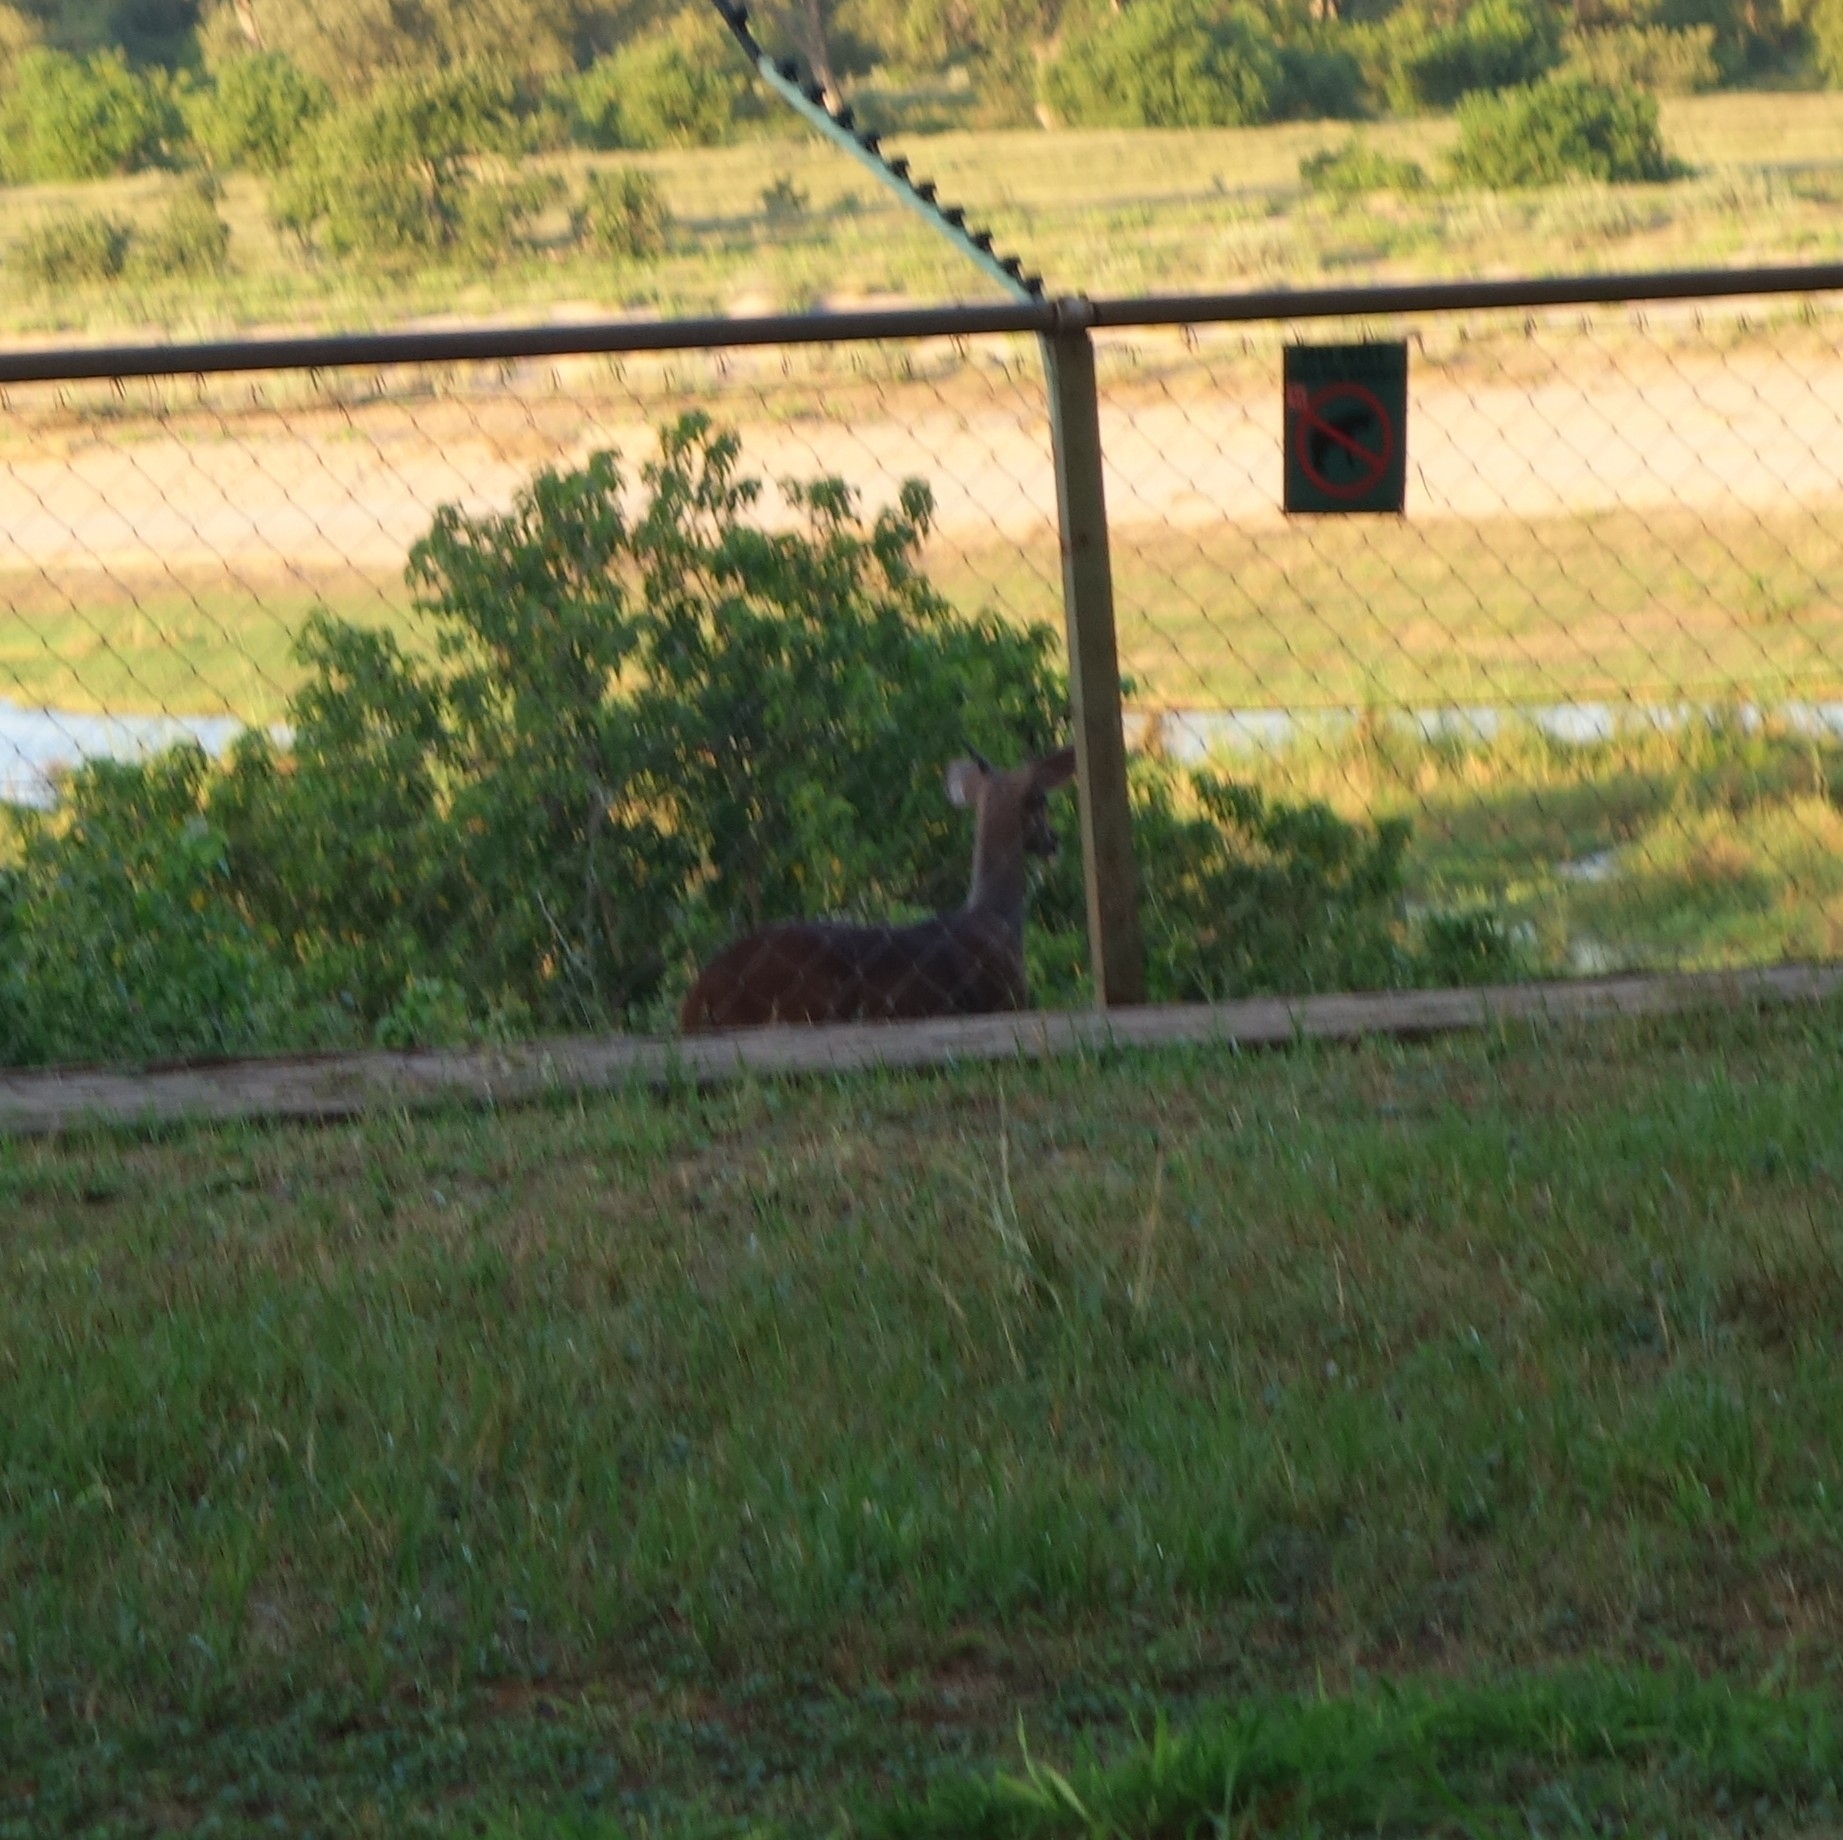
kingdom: Animalia
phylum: Chordata
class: Mammalia
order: Artiodactyla
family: Bovidae
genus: Tragelaphus
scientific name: Tragelaphus scriptus
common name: Bushbuck
